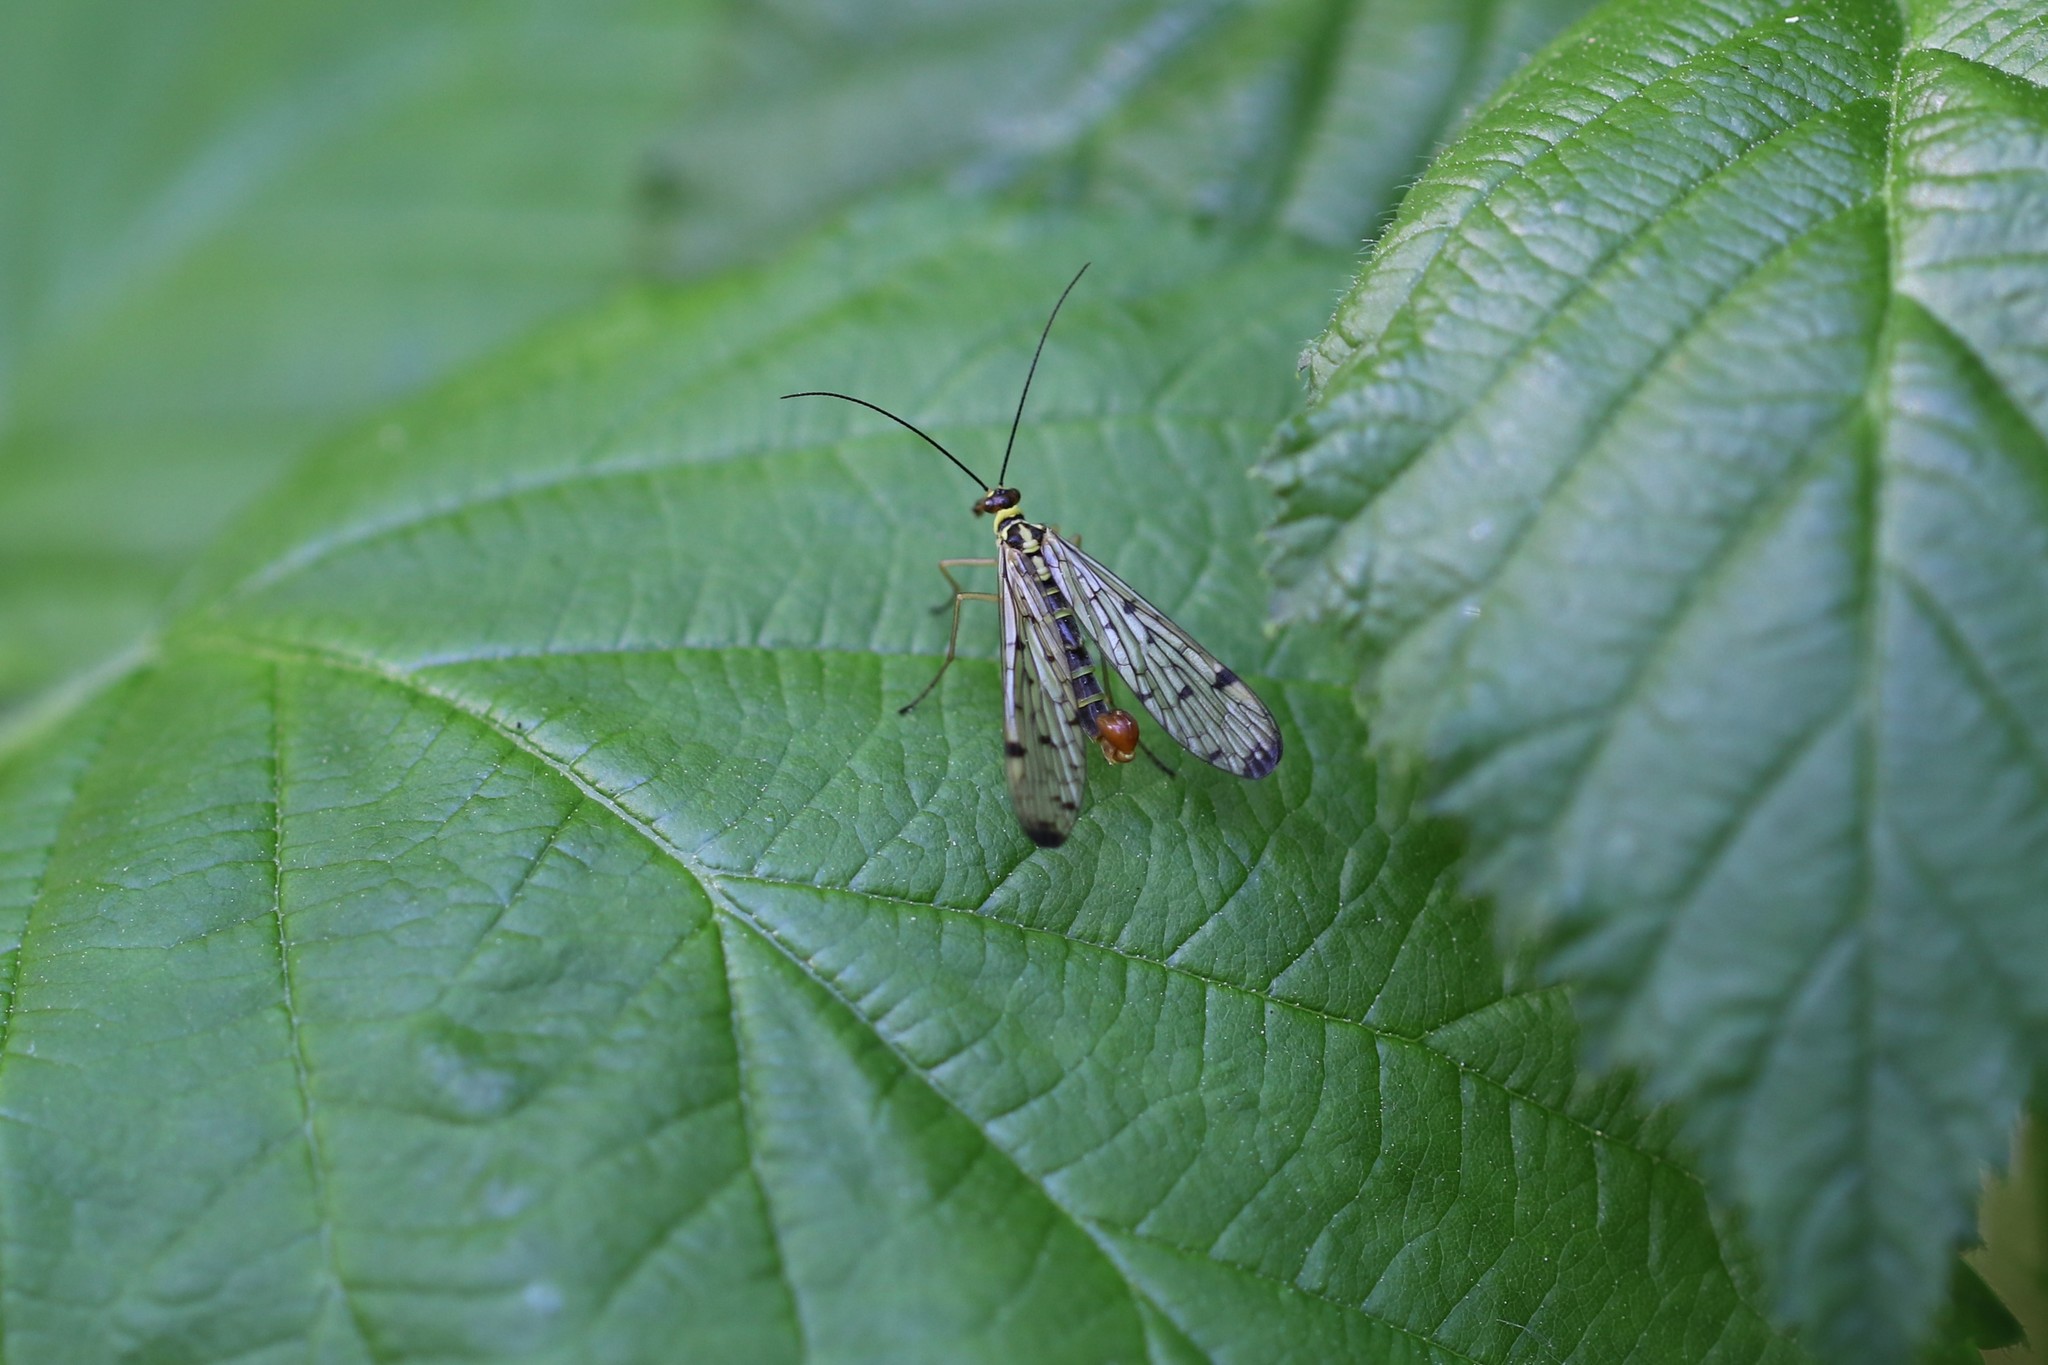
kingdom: Animalia
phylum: Arthropoda
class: Insecta
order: Mecoptera
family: Panorpidae
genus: Panorpa
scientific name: Panorpa germanica
